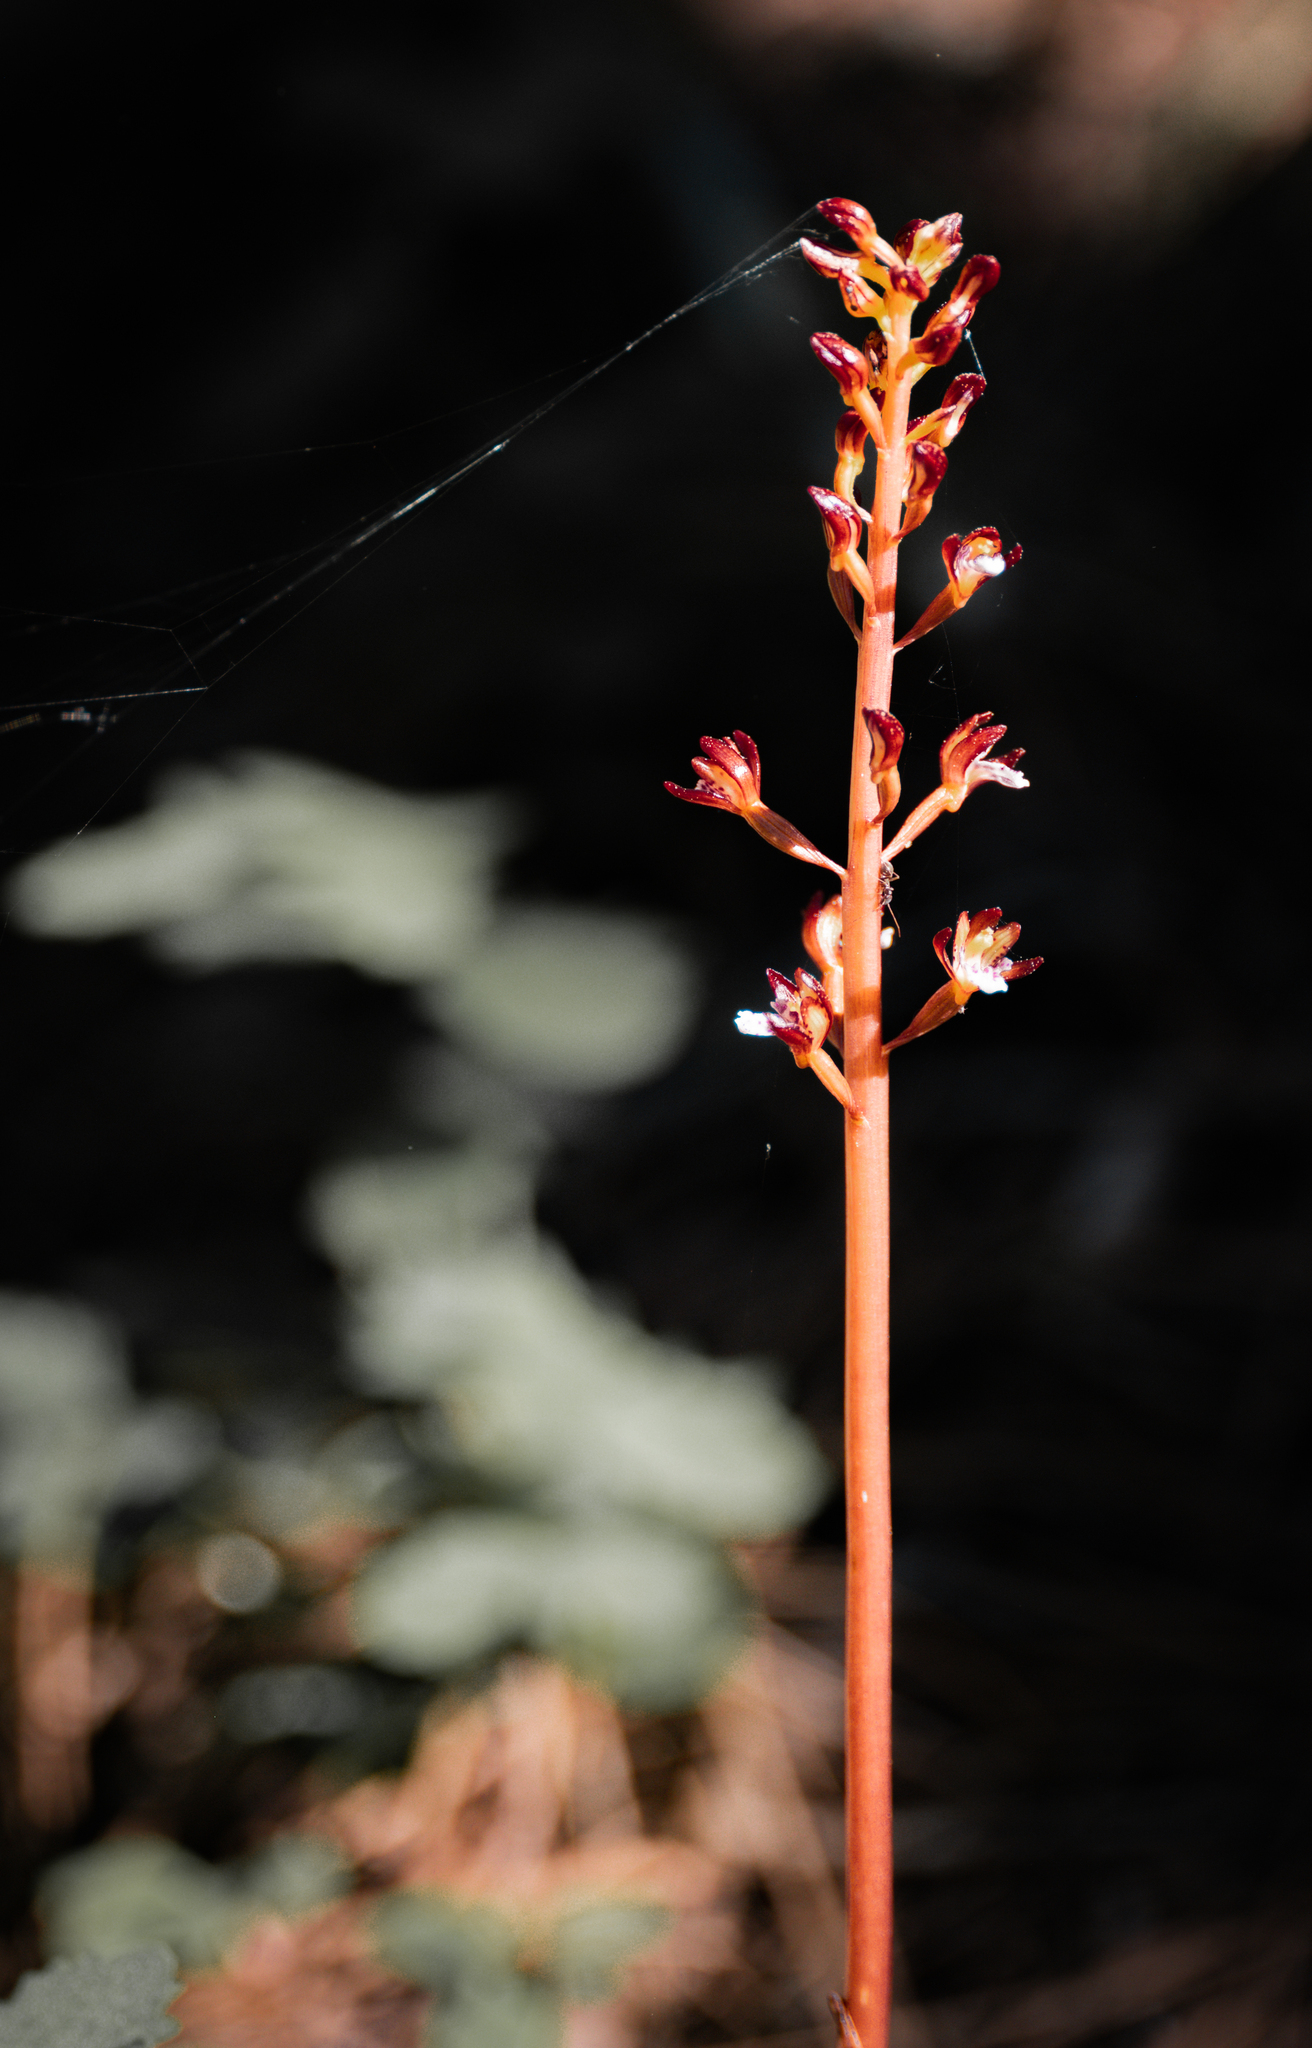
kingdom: Plantae
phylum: Tracheophyta
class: Liliopsida
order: Asparagales
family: Orchidaceae
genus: Corallorhiza
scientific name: Corallorhiza maculata
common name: Spotted coralroot
